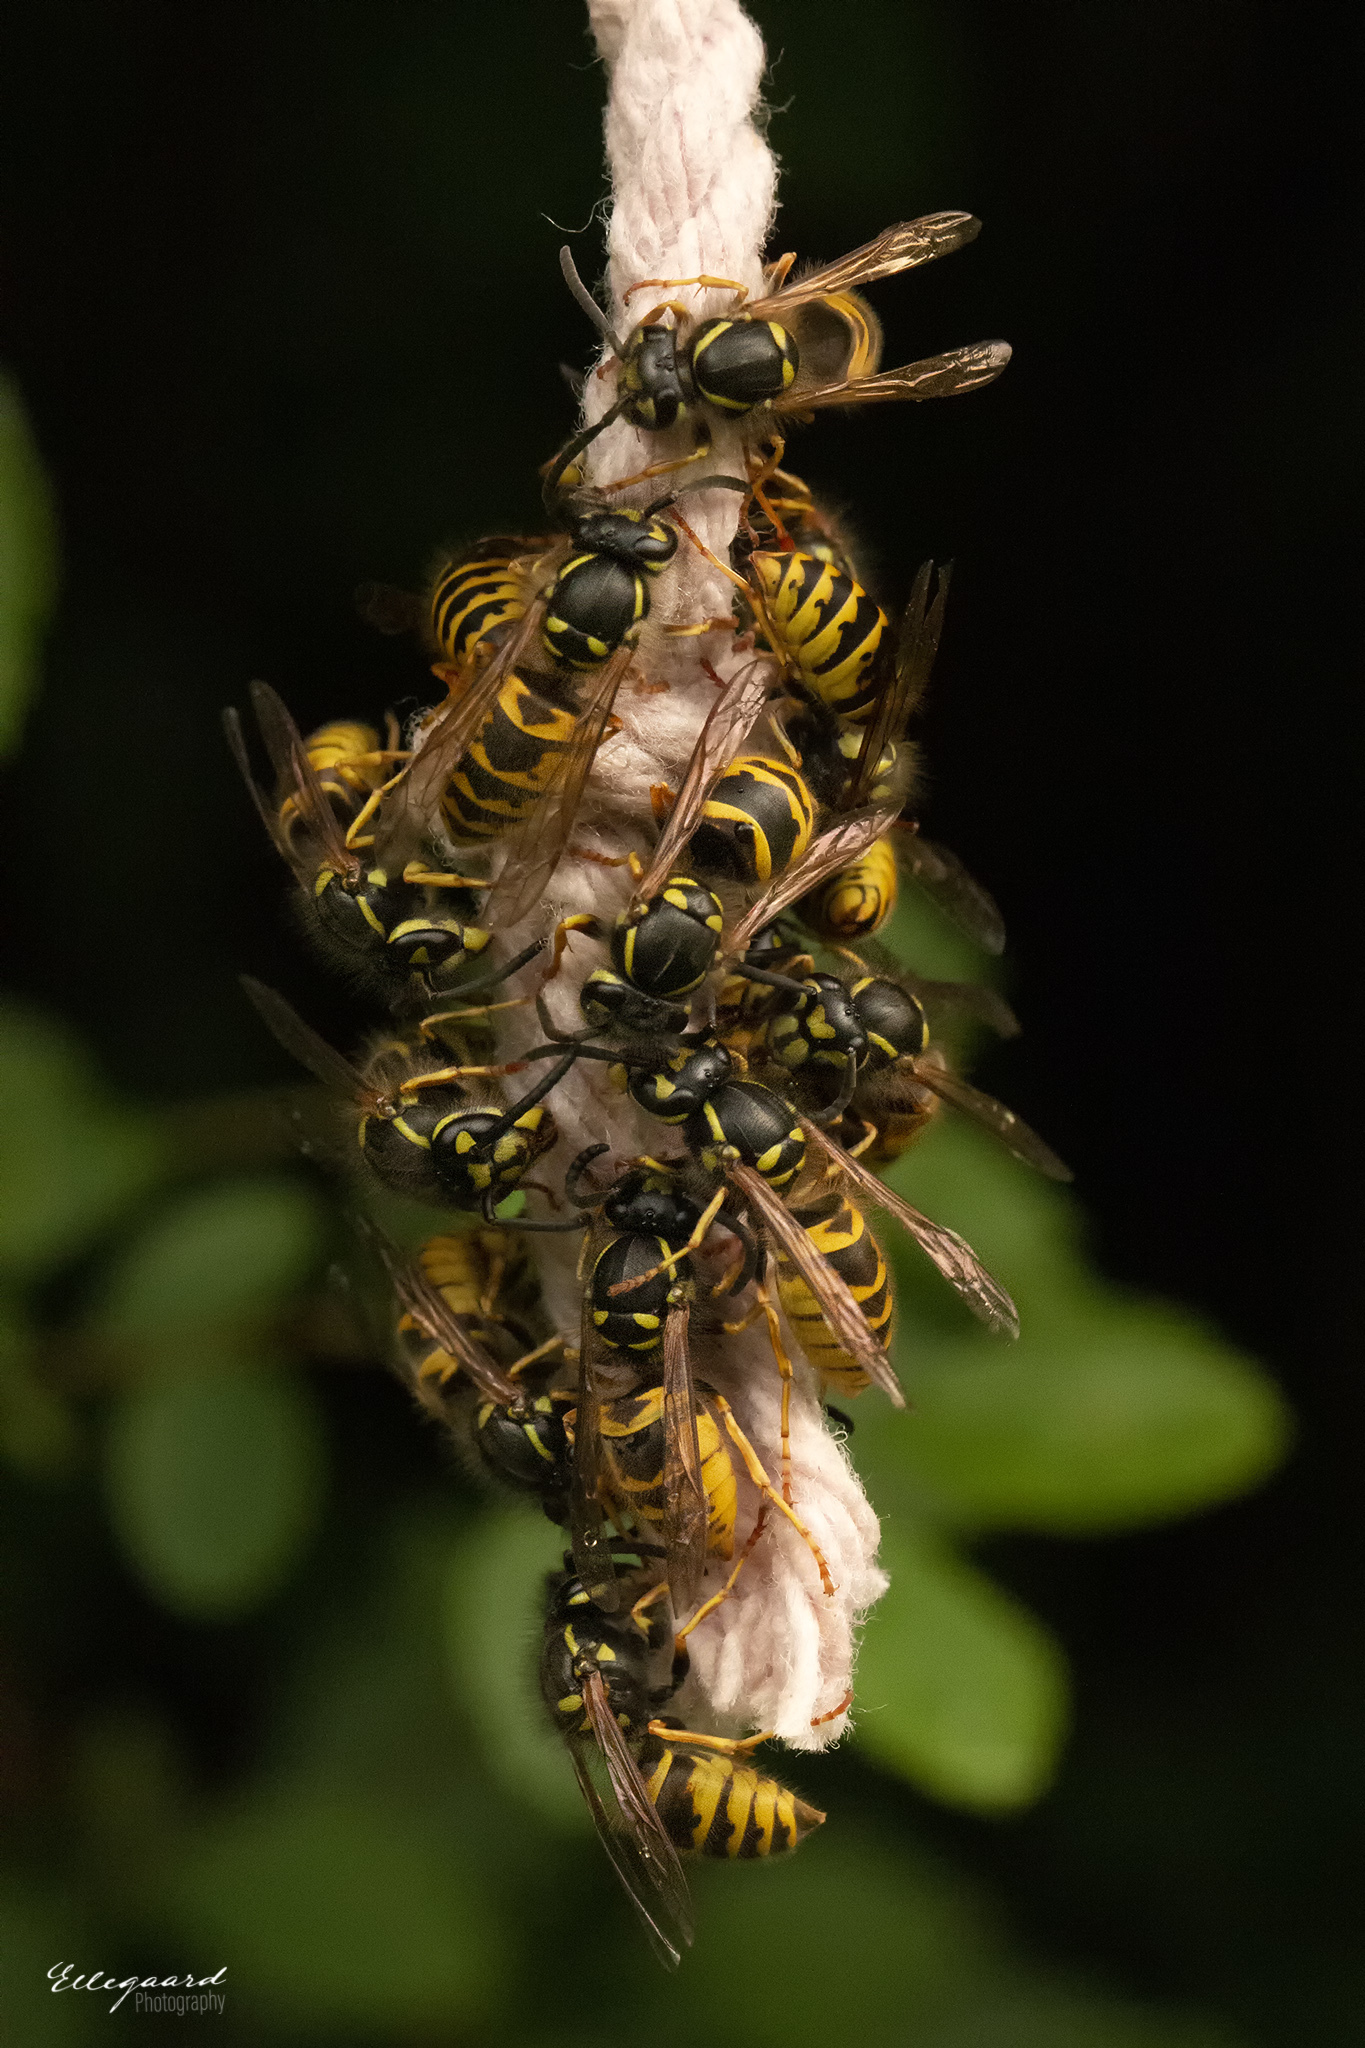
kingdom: Animalia
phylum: Arthropoda
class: Insecta
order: Hymenoptera
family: Vespidae
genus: Vespula
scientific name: Vespula vulgaris
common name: Common wasp
